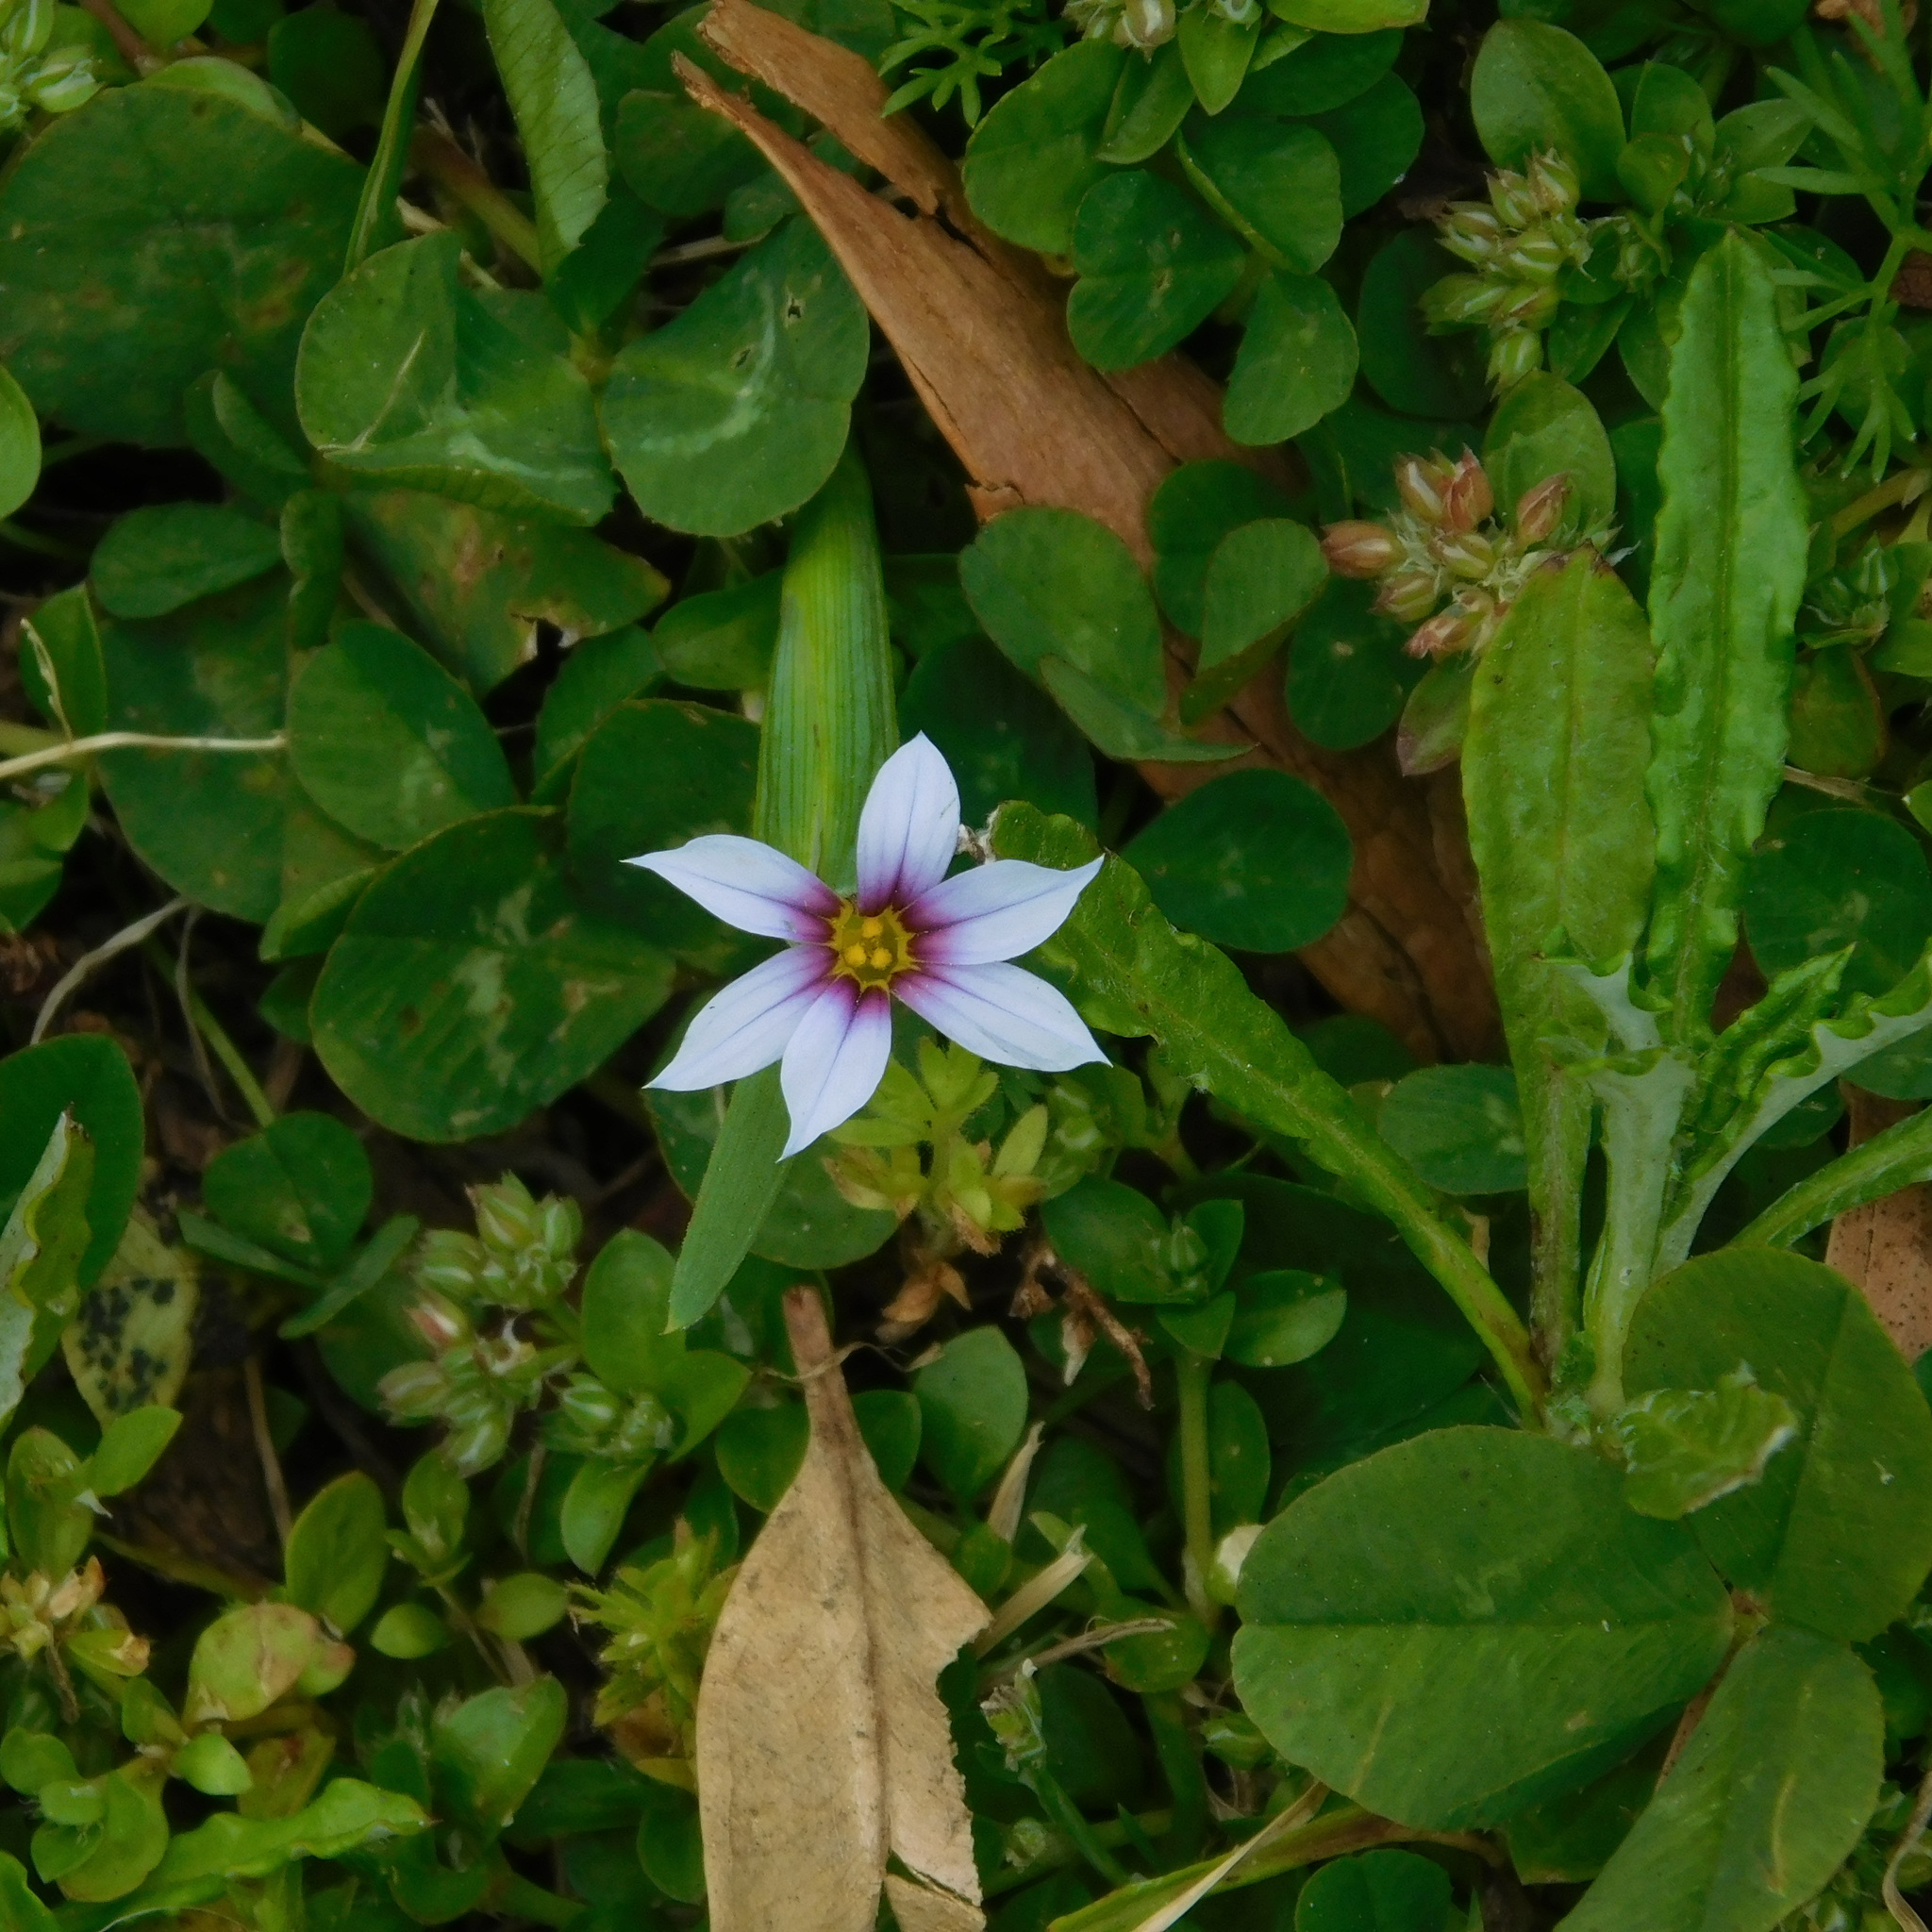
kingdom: Plantae
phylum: Tracheophyta
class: Liliopsida
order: Asparagales
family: Iridaceae
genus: Sisyrinchium
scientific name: Sisyrinchium micranthum
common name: Bermuda pigroot
